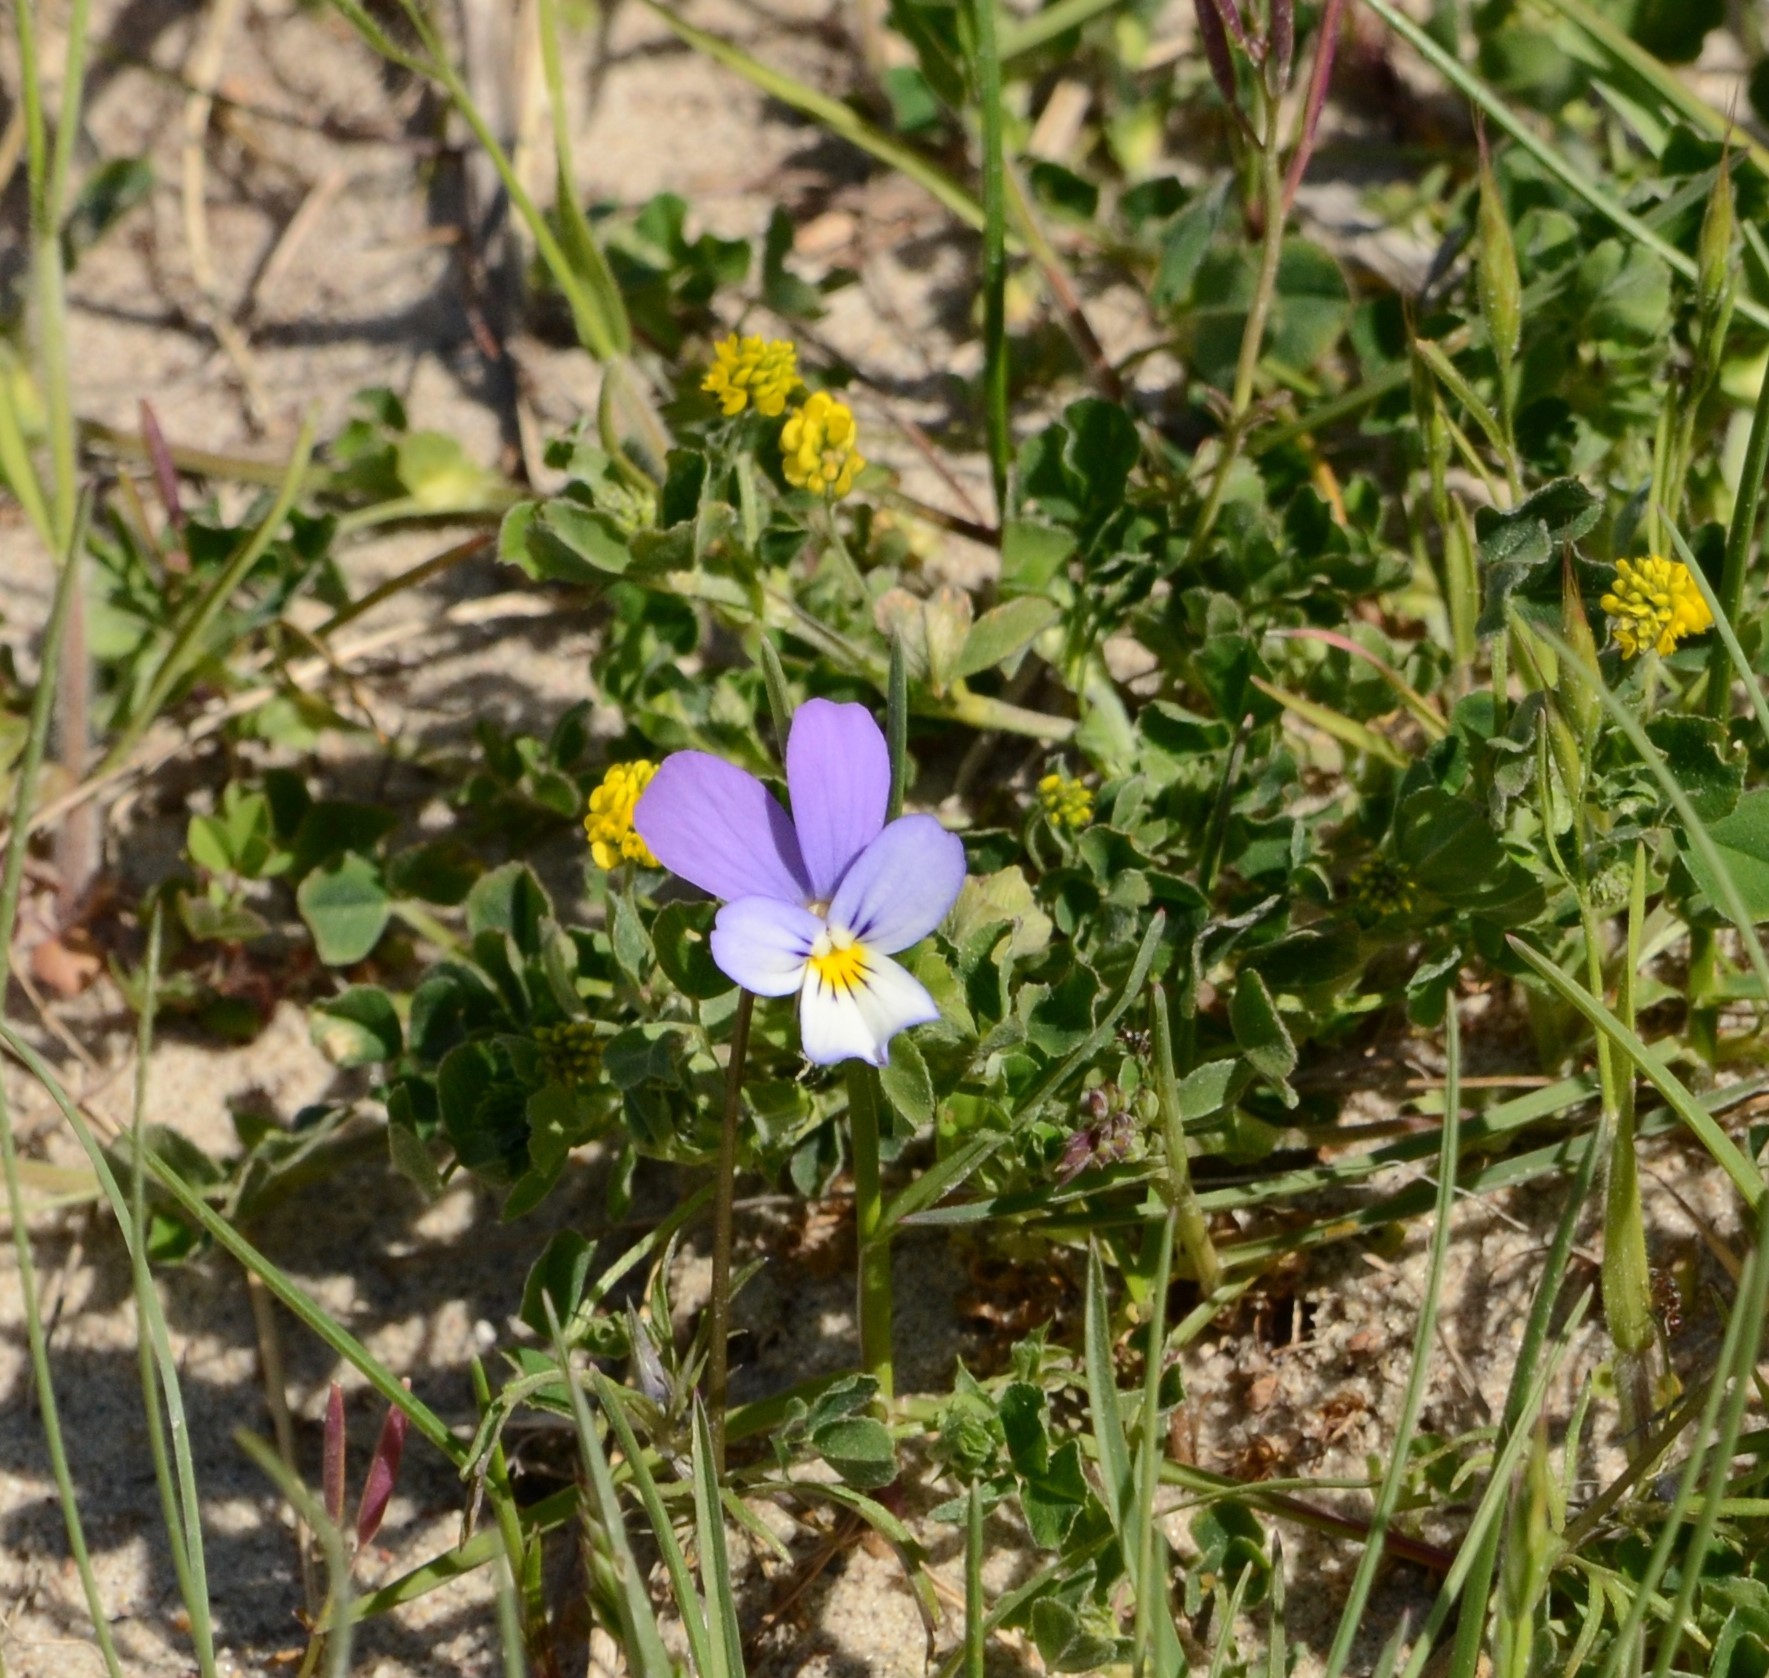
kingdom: Plantae
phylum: Tracheophyta
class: Magnoliopsida
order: Malpighiales
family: Violaceae
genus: Viola
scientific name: Viola tricolor
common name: Pansy
